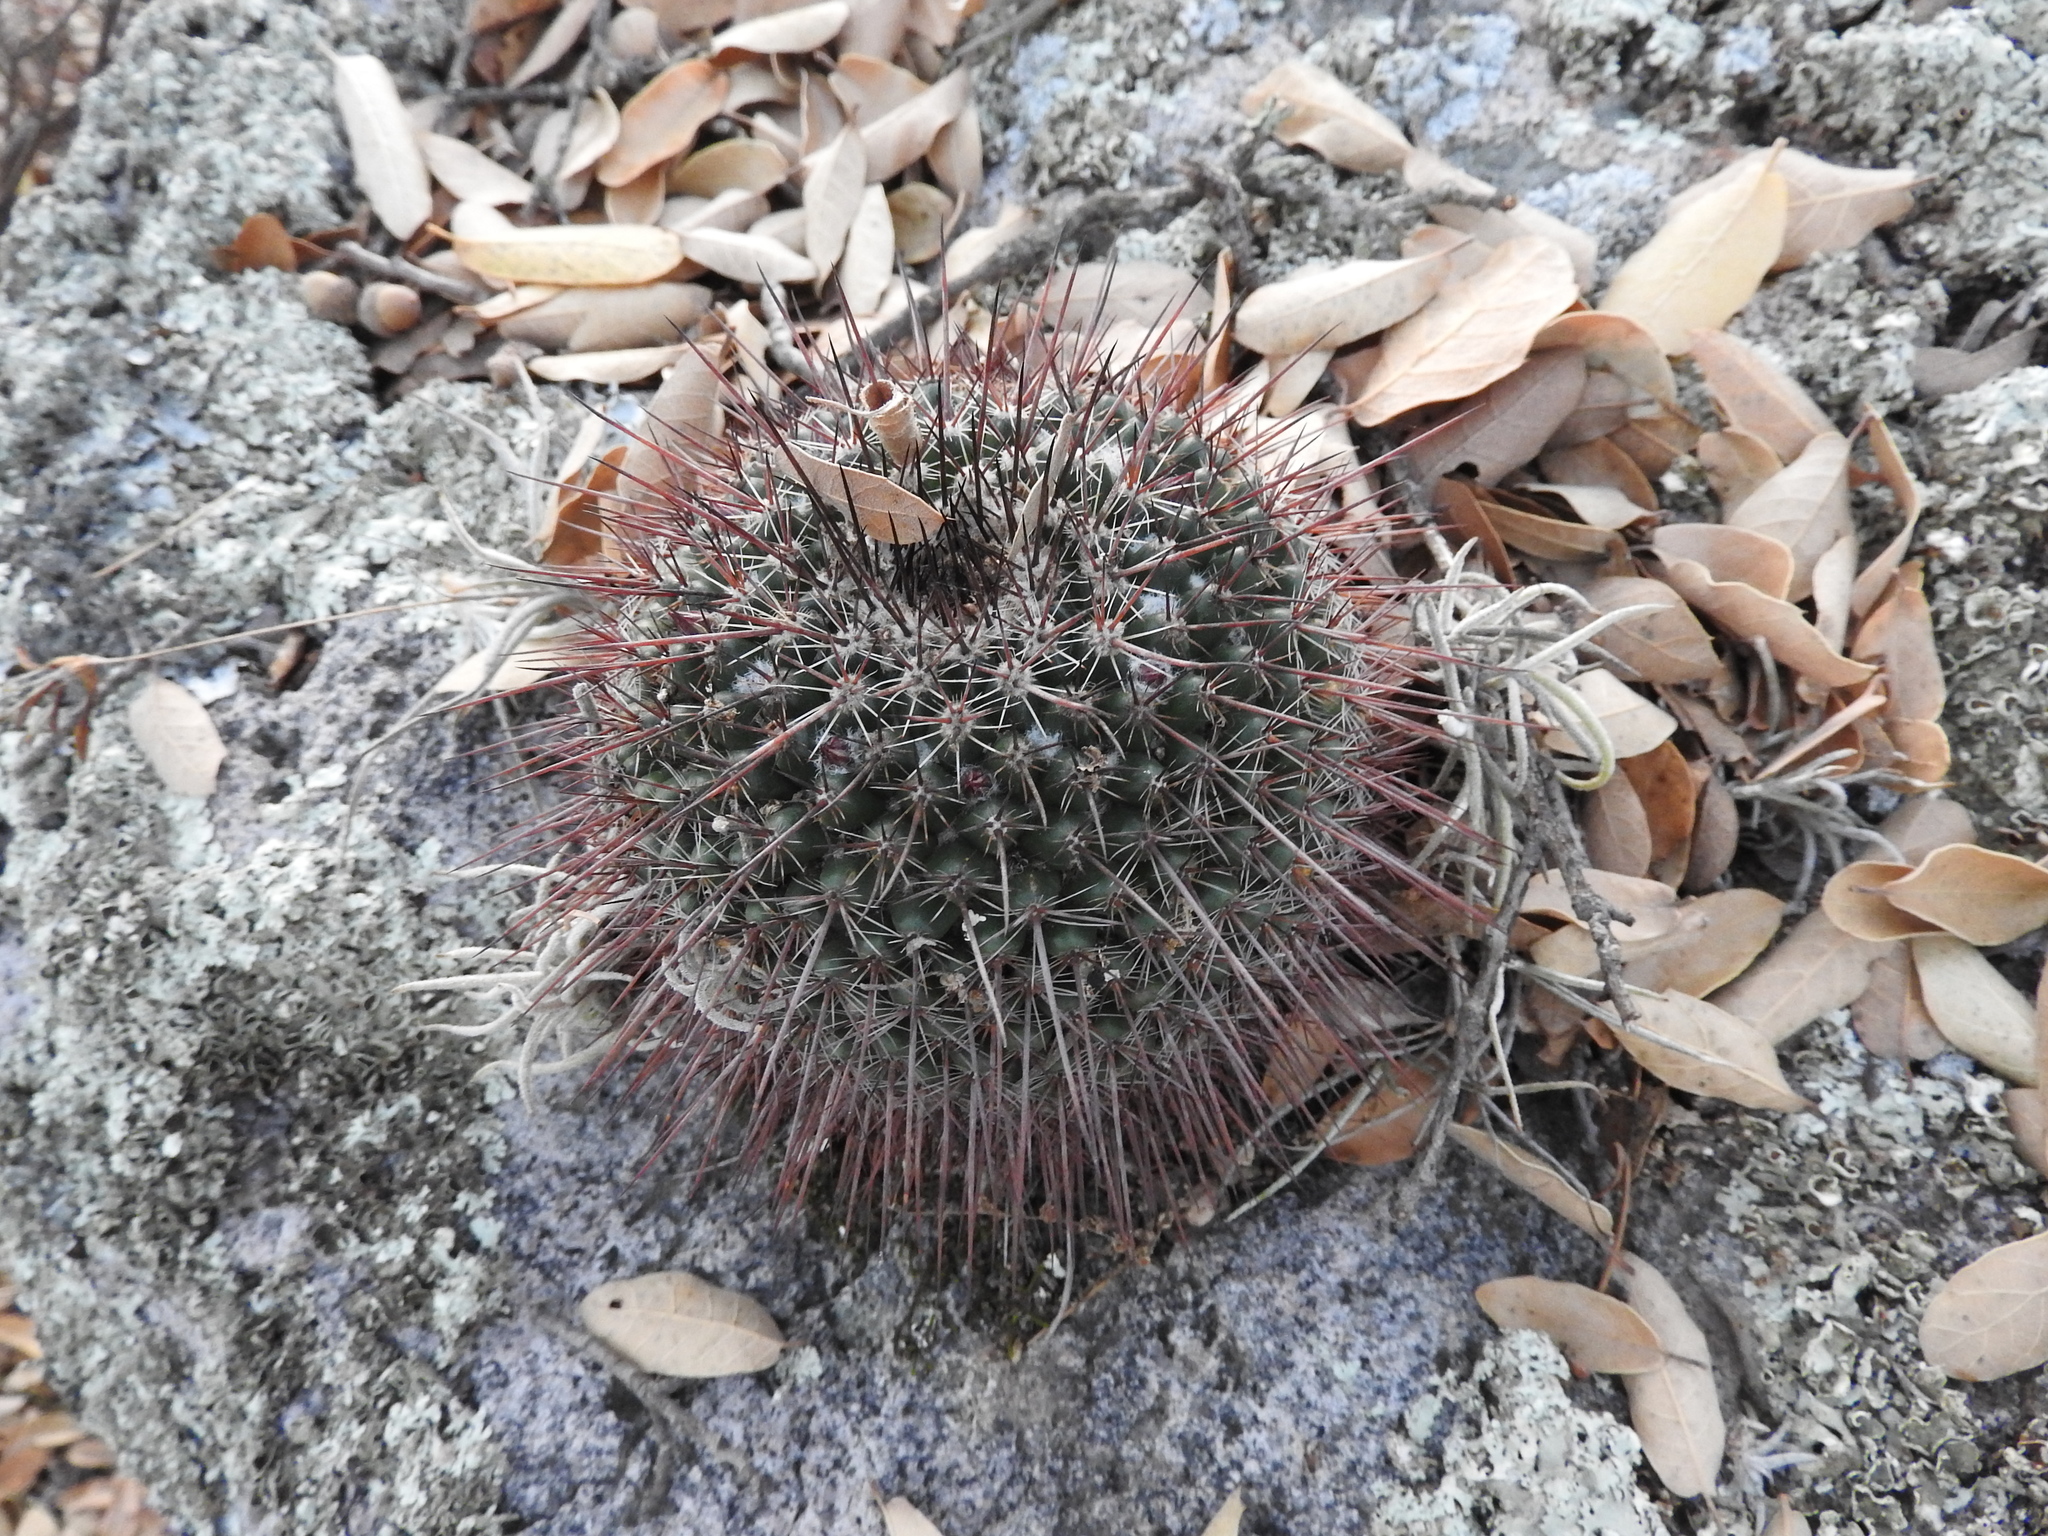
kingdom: Plantae
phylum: Tracheophyta
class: Magnoliopsida
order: Caryophyllales
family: Cactaceae
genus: Mammillaria
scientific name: Mammillaria gigantea
